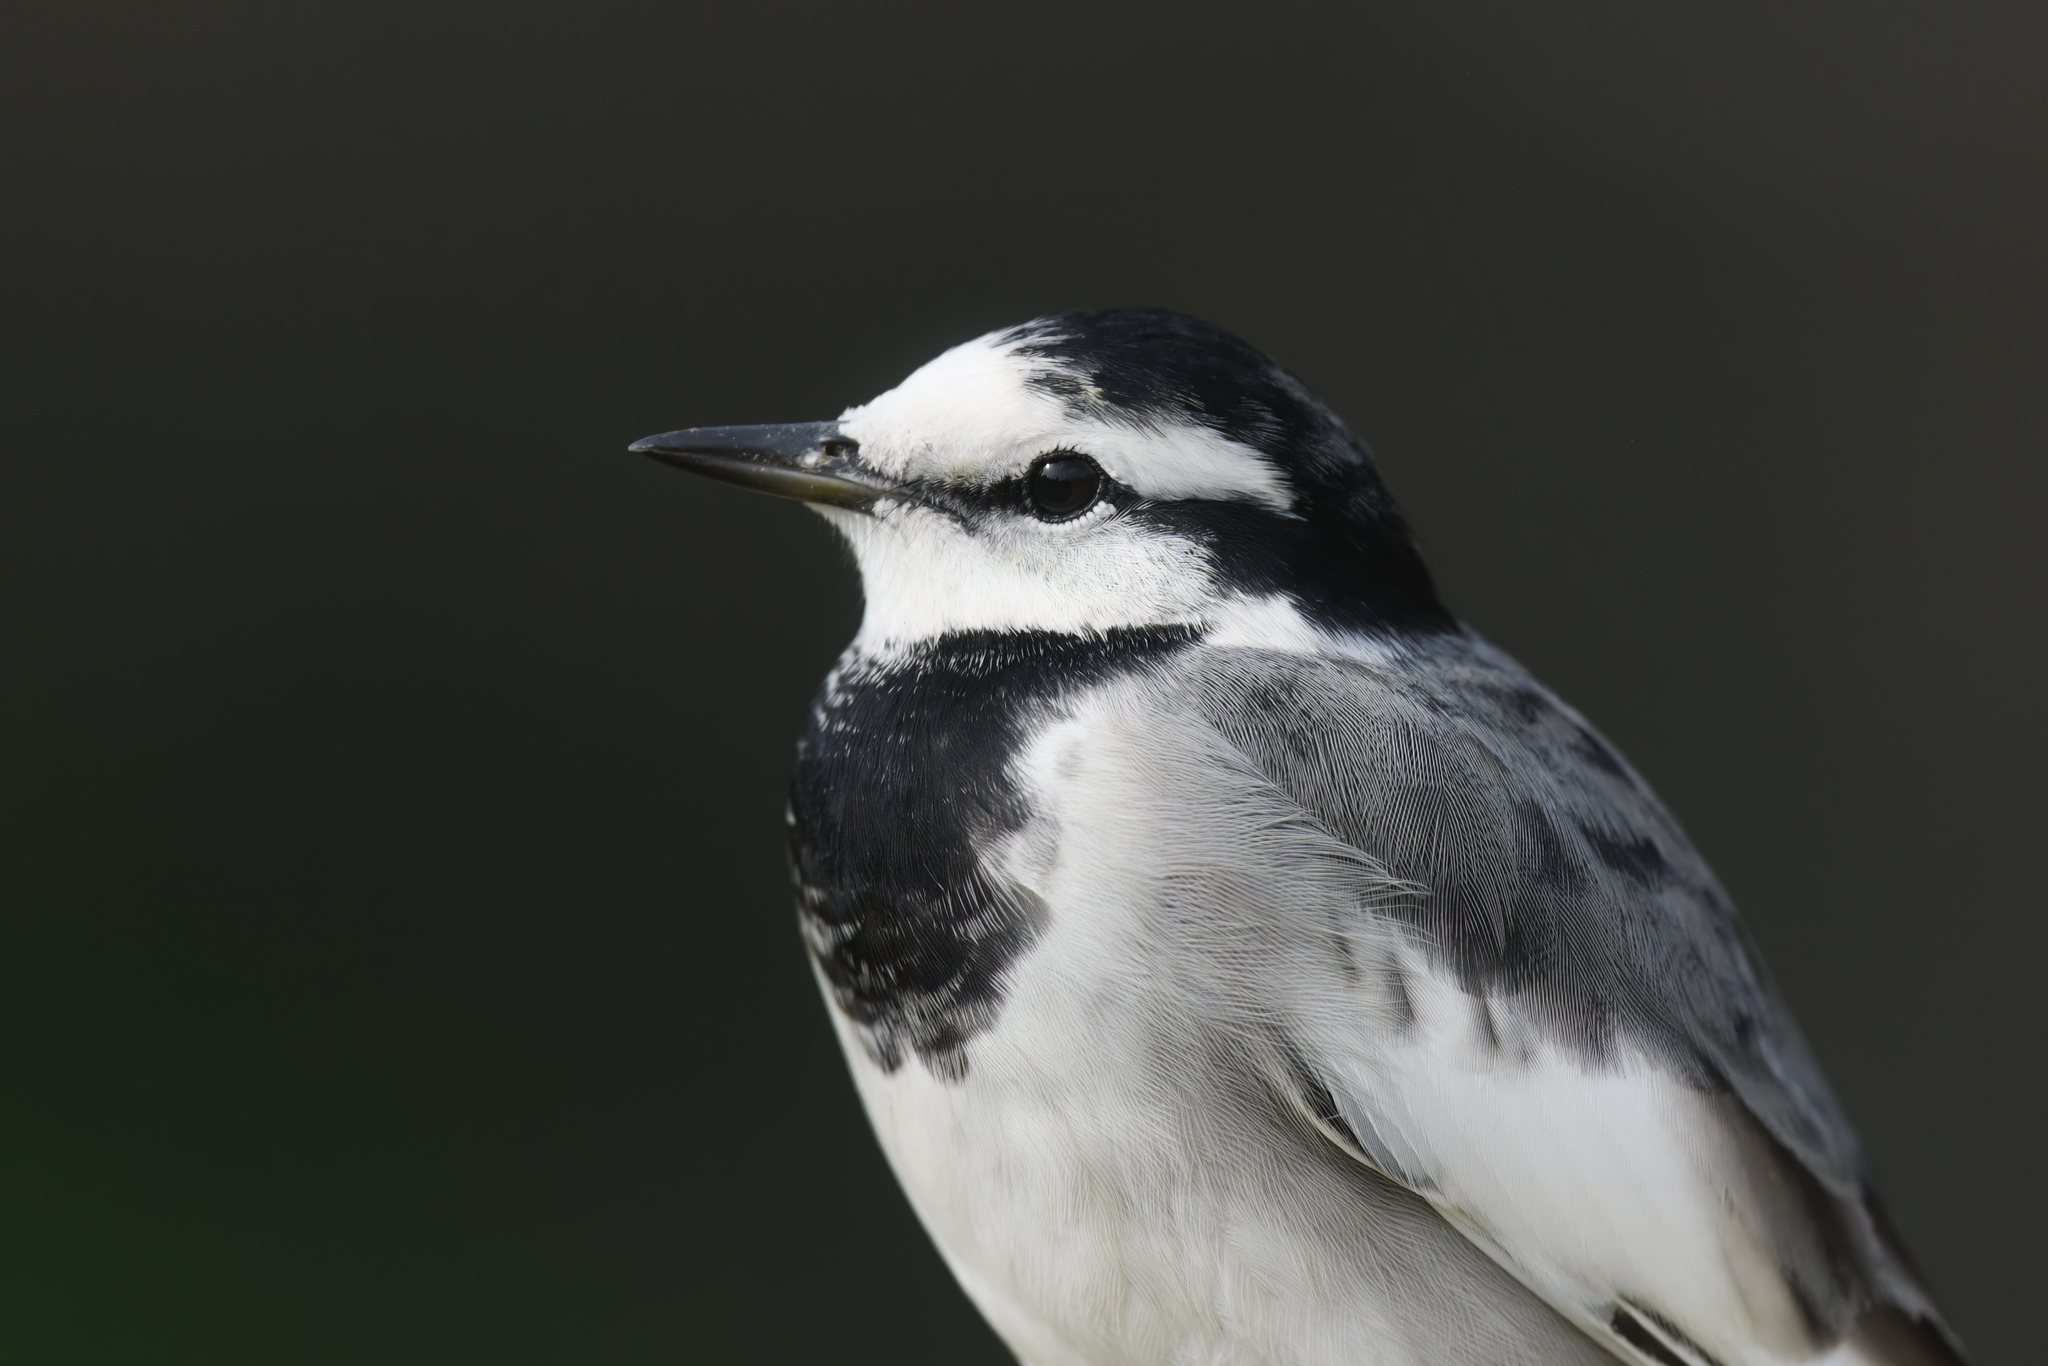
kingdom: Animalia
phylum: Chordata
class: Aves
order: Passeriformes
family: Motacillidae
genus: Motacilla
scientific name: Motacilla alba
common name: White wagtail
